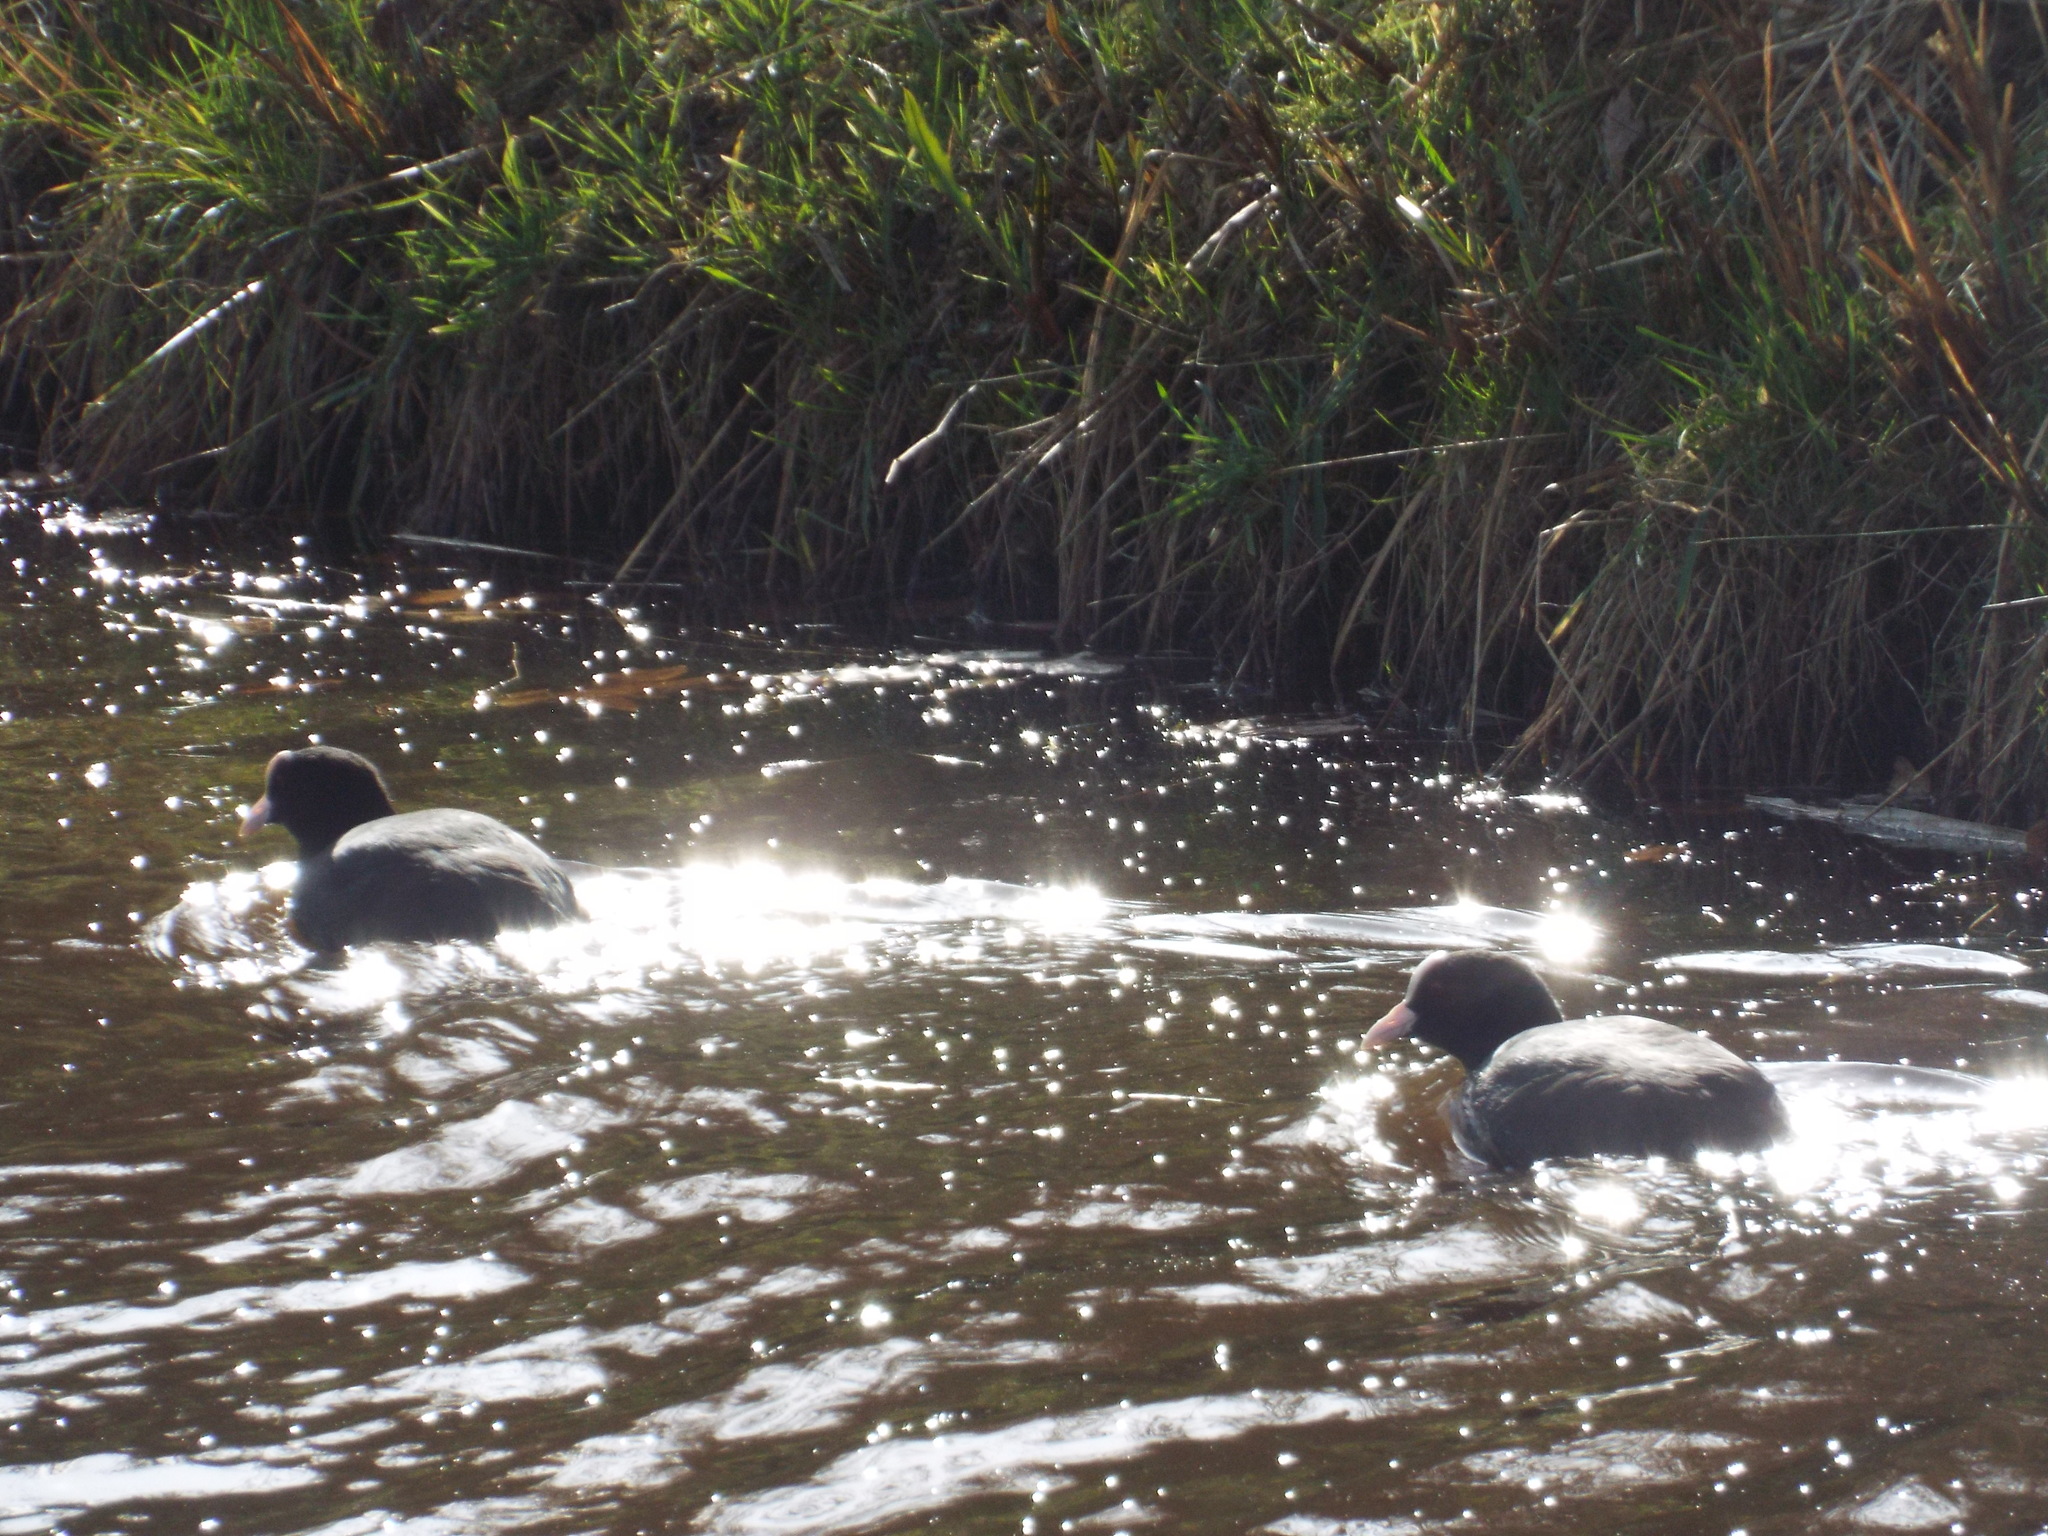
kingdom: Animalia
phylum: Chordata
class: Aves
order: Gruiformes
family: Rallidae
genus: Fulica
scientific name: Fulica atra
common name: Eurasian coot
